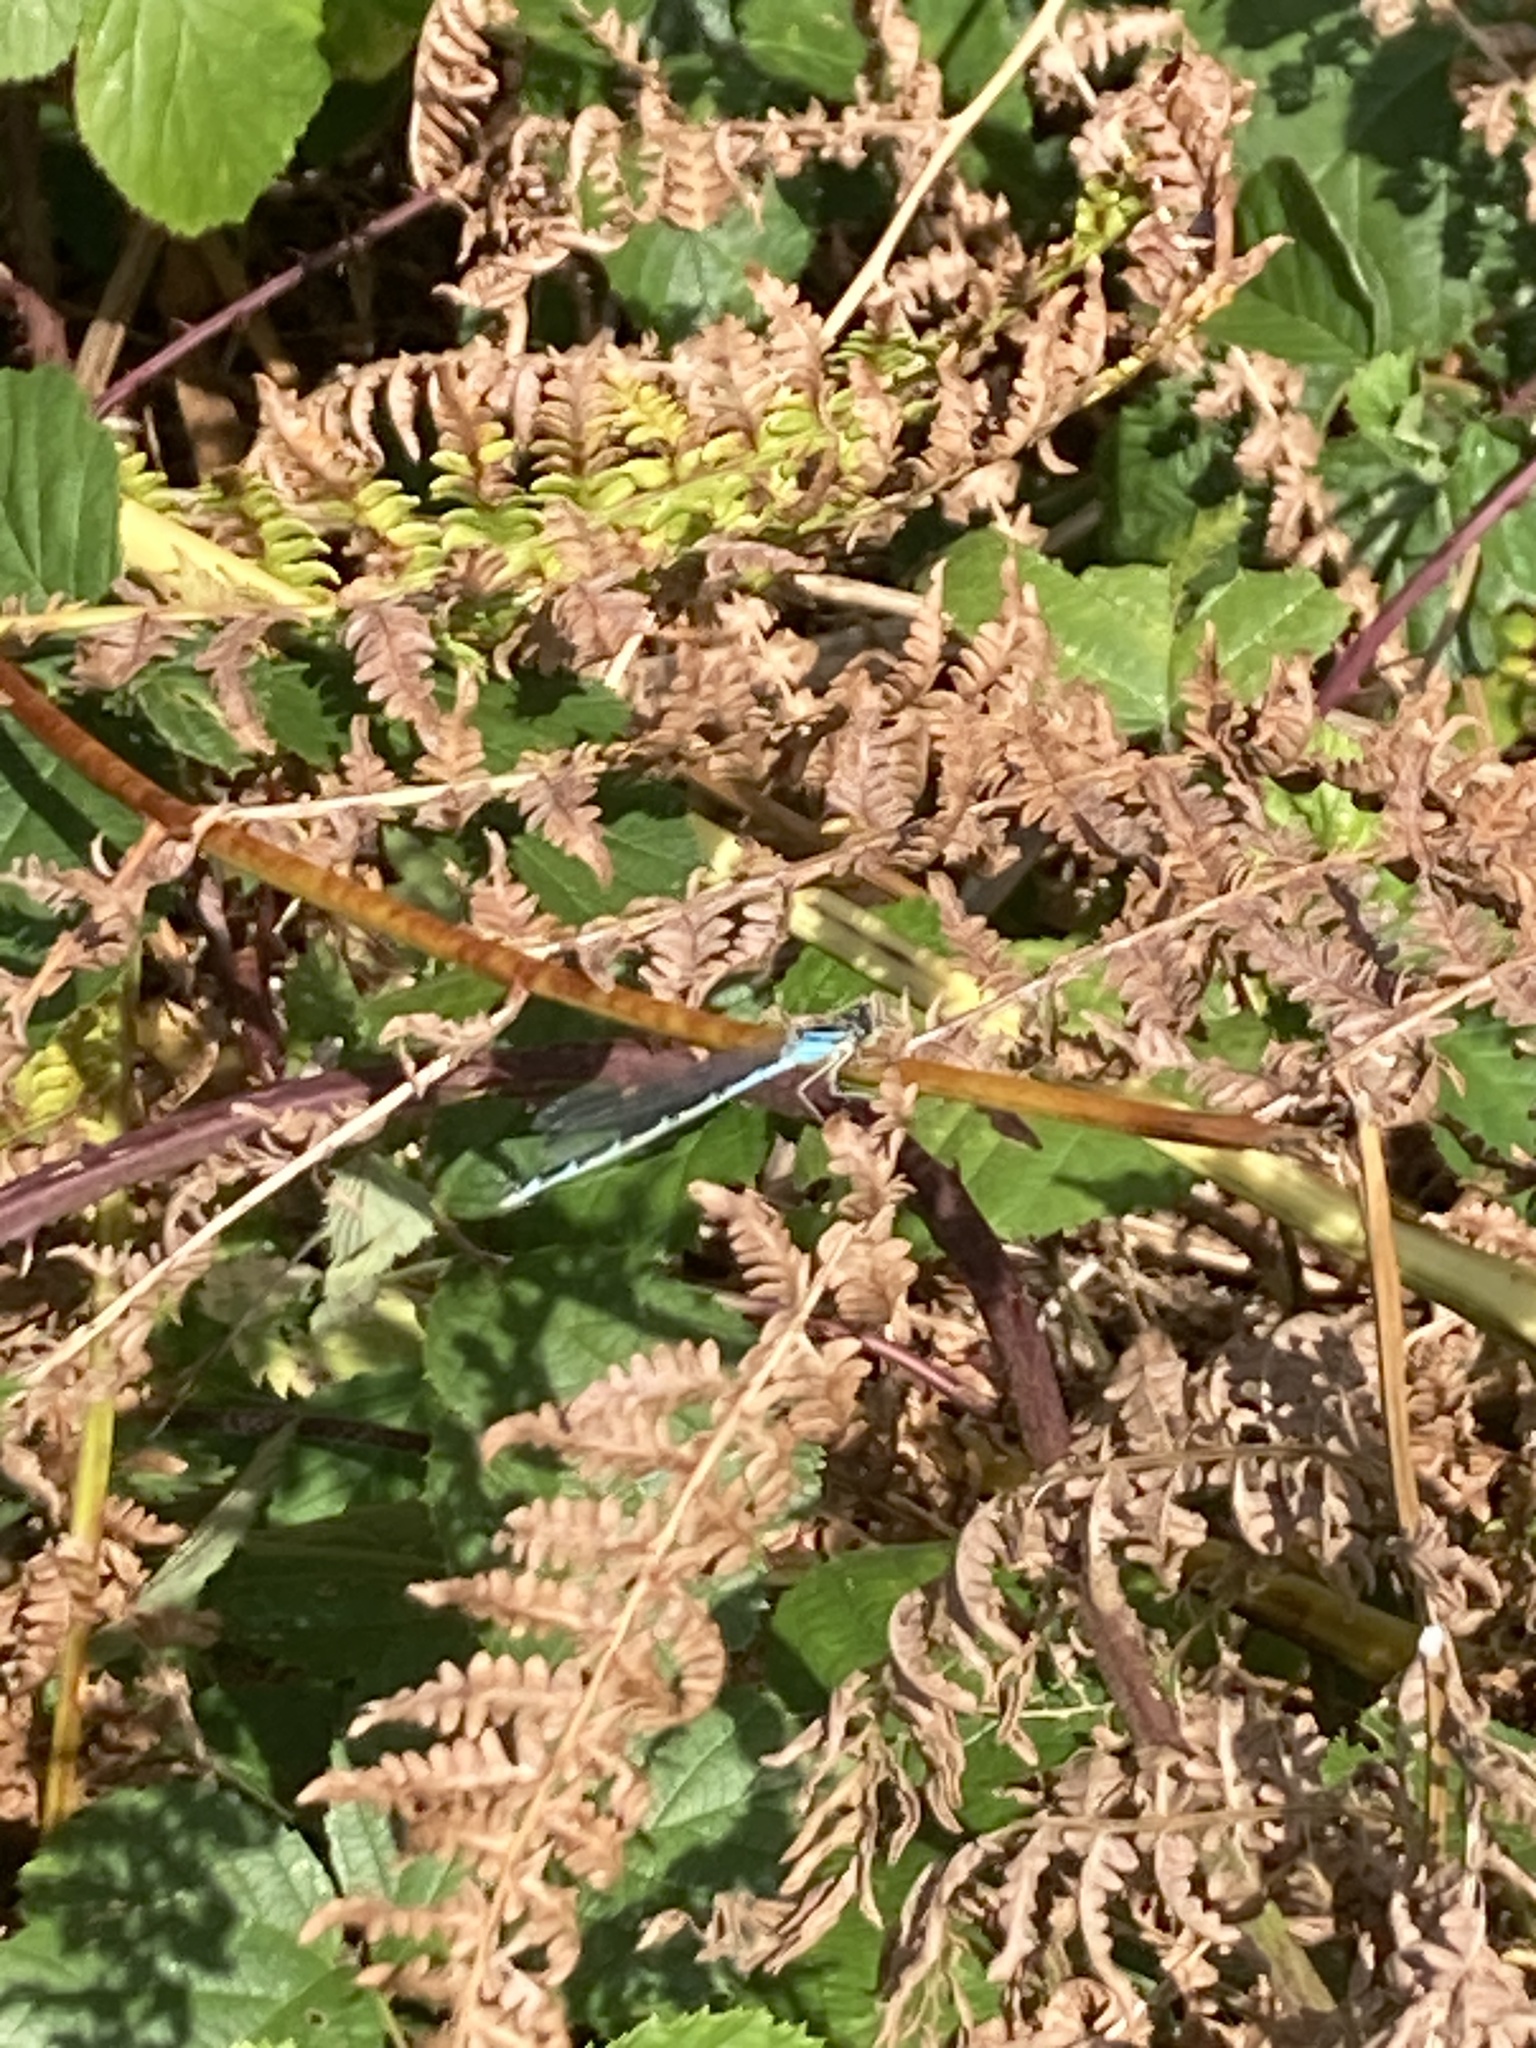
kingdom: Animalia
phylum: Arthropoda
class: Insecta
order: Odonata
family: Coenagrionidae
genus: Enallagma
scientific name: Enallagma cyathigerum
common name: Common blue damselfly
